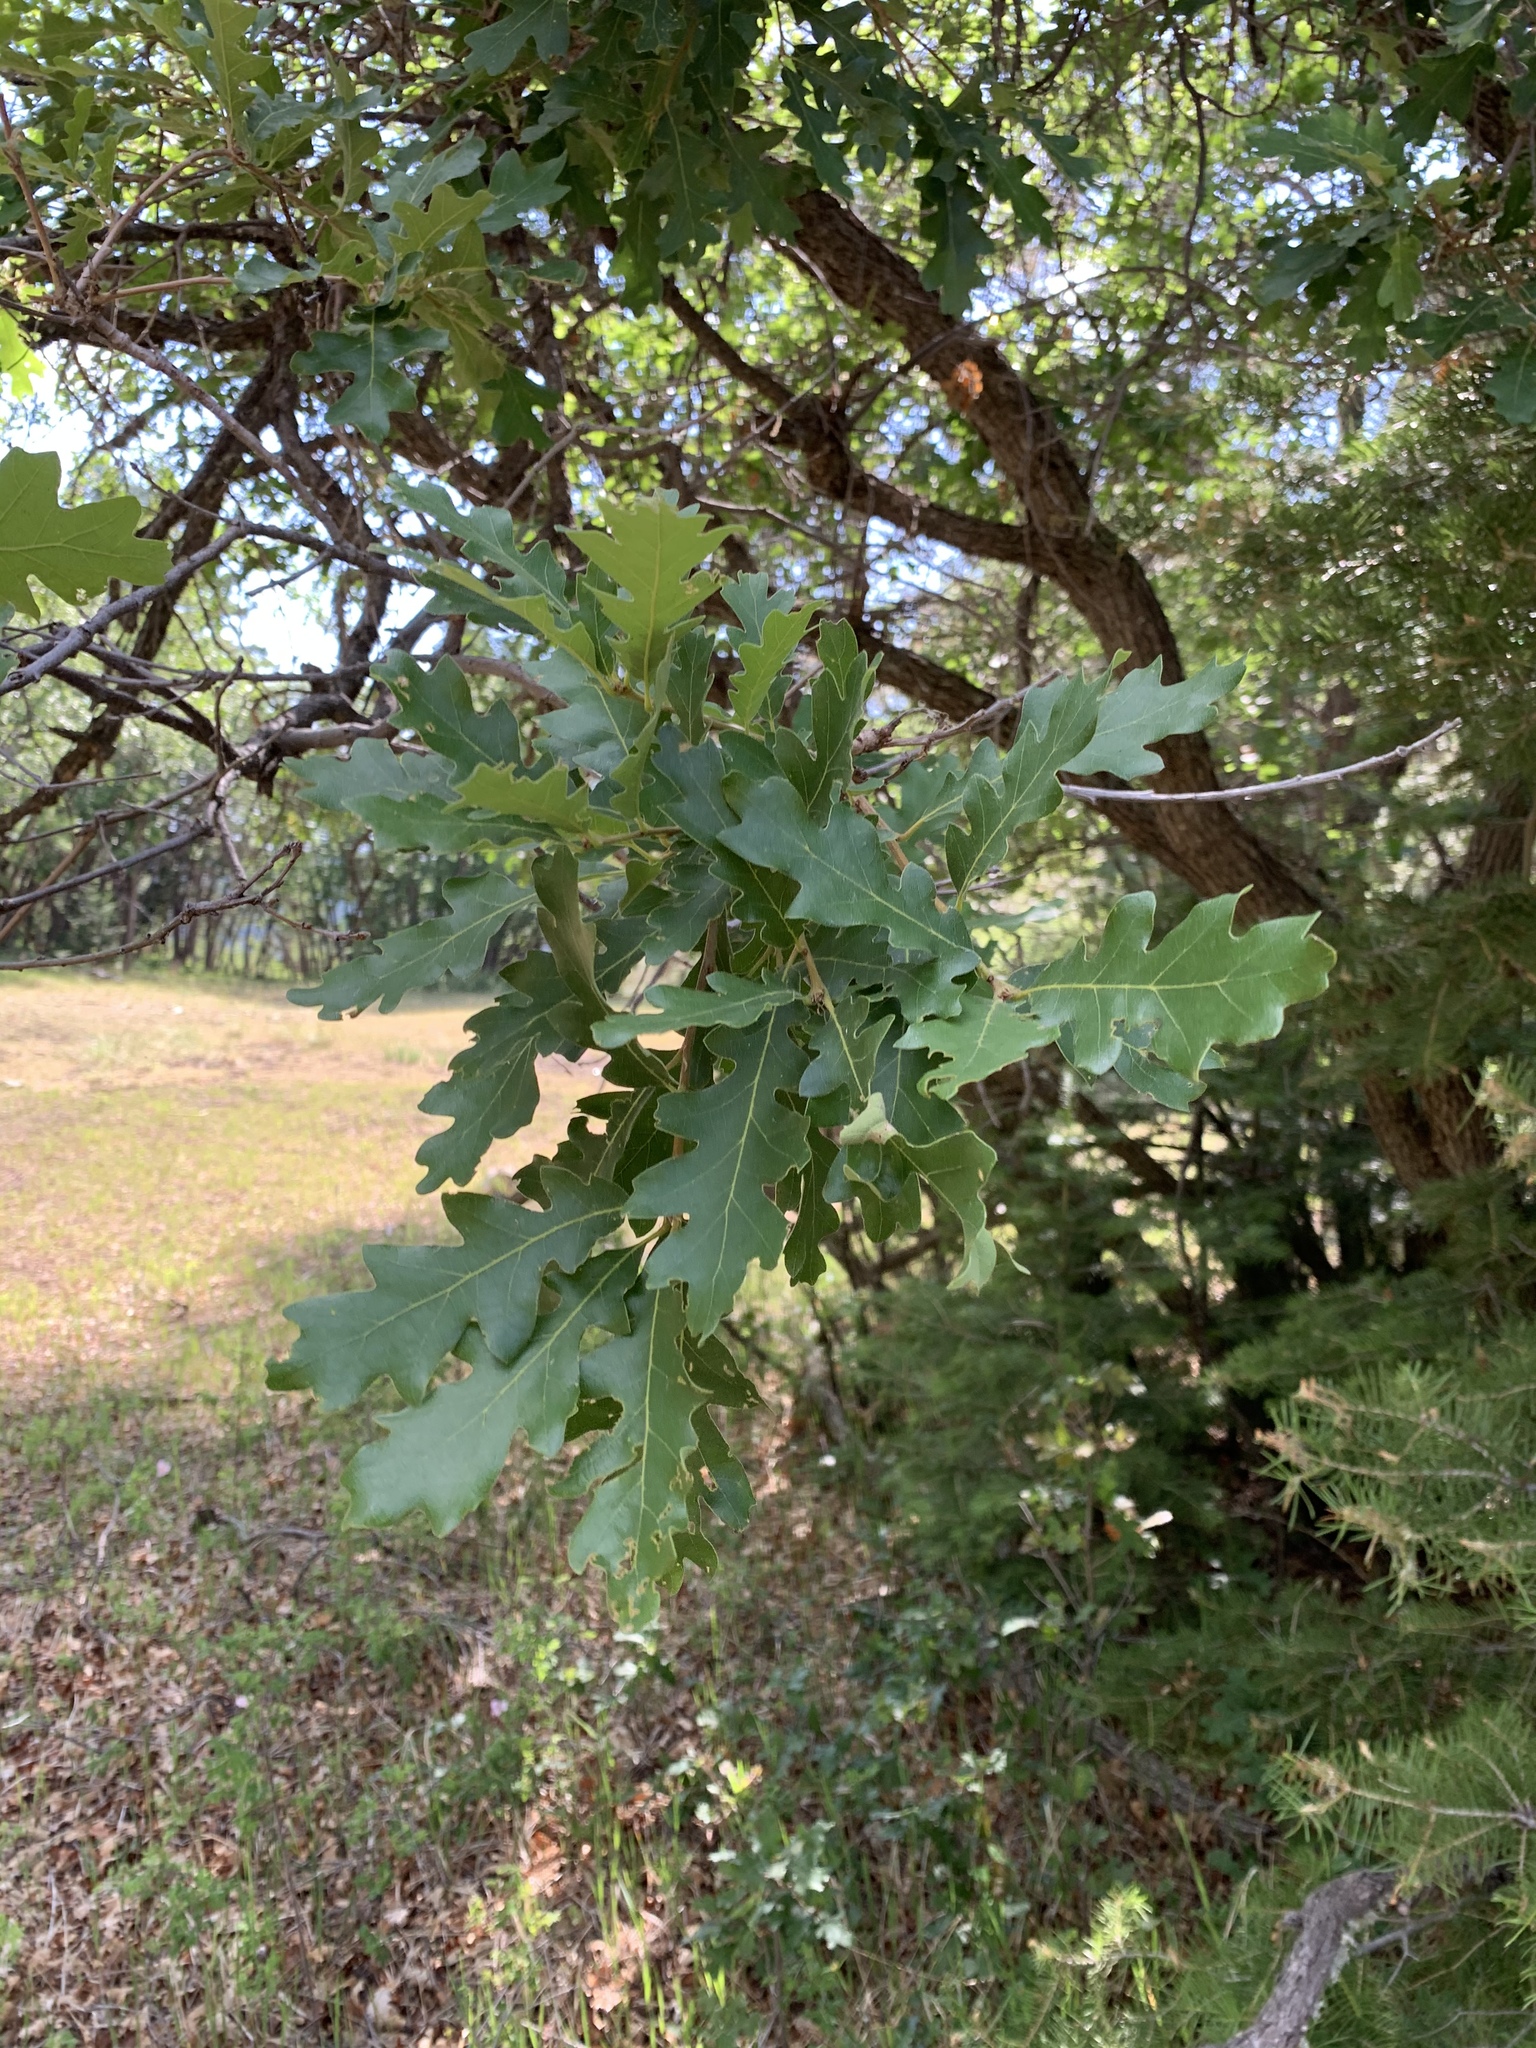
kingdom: Plantae
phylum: Tracheophyta
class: Magnoliopsida
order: Fagales
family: Fagaceae
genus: Quercus
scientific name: Quercus gambelii
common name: Gambel oak
